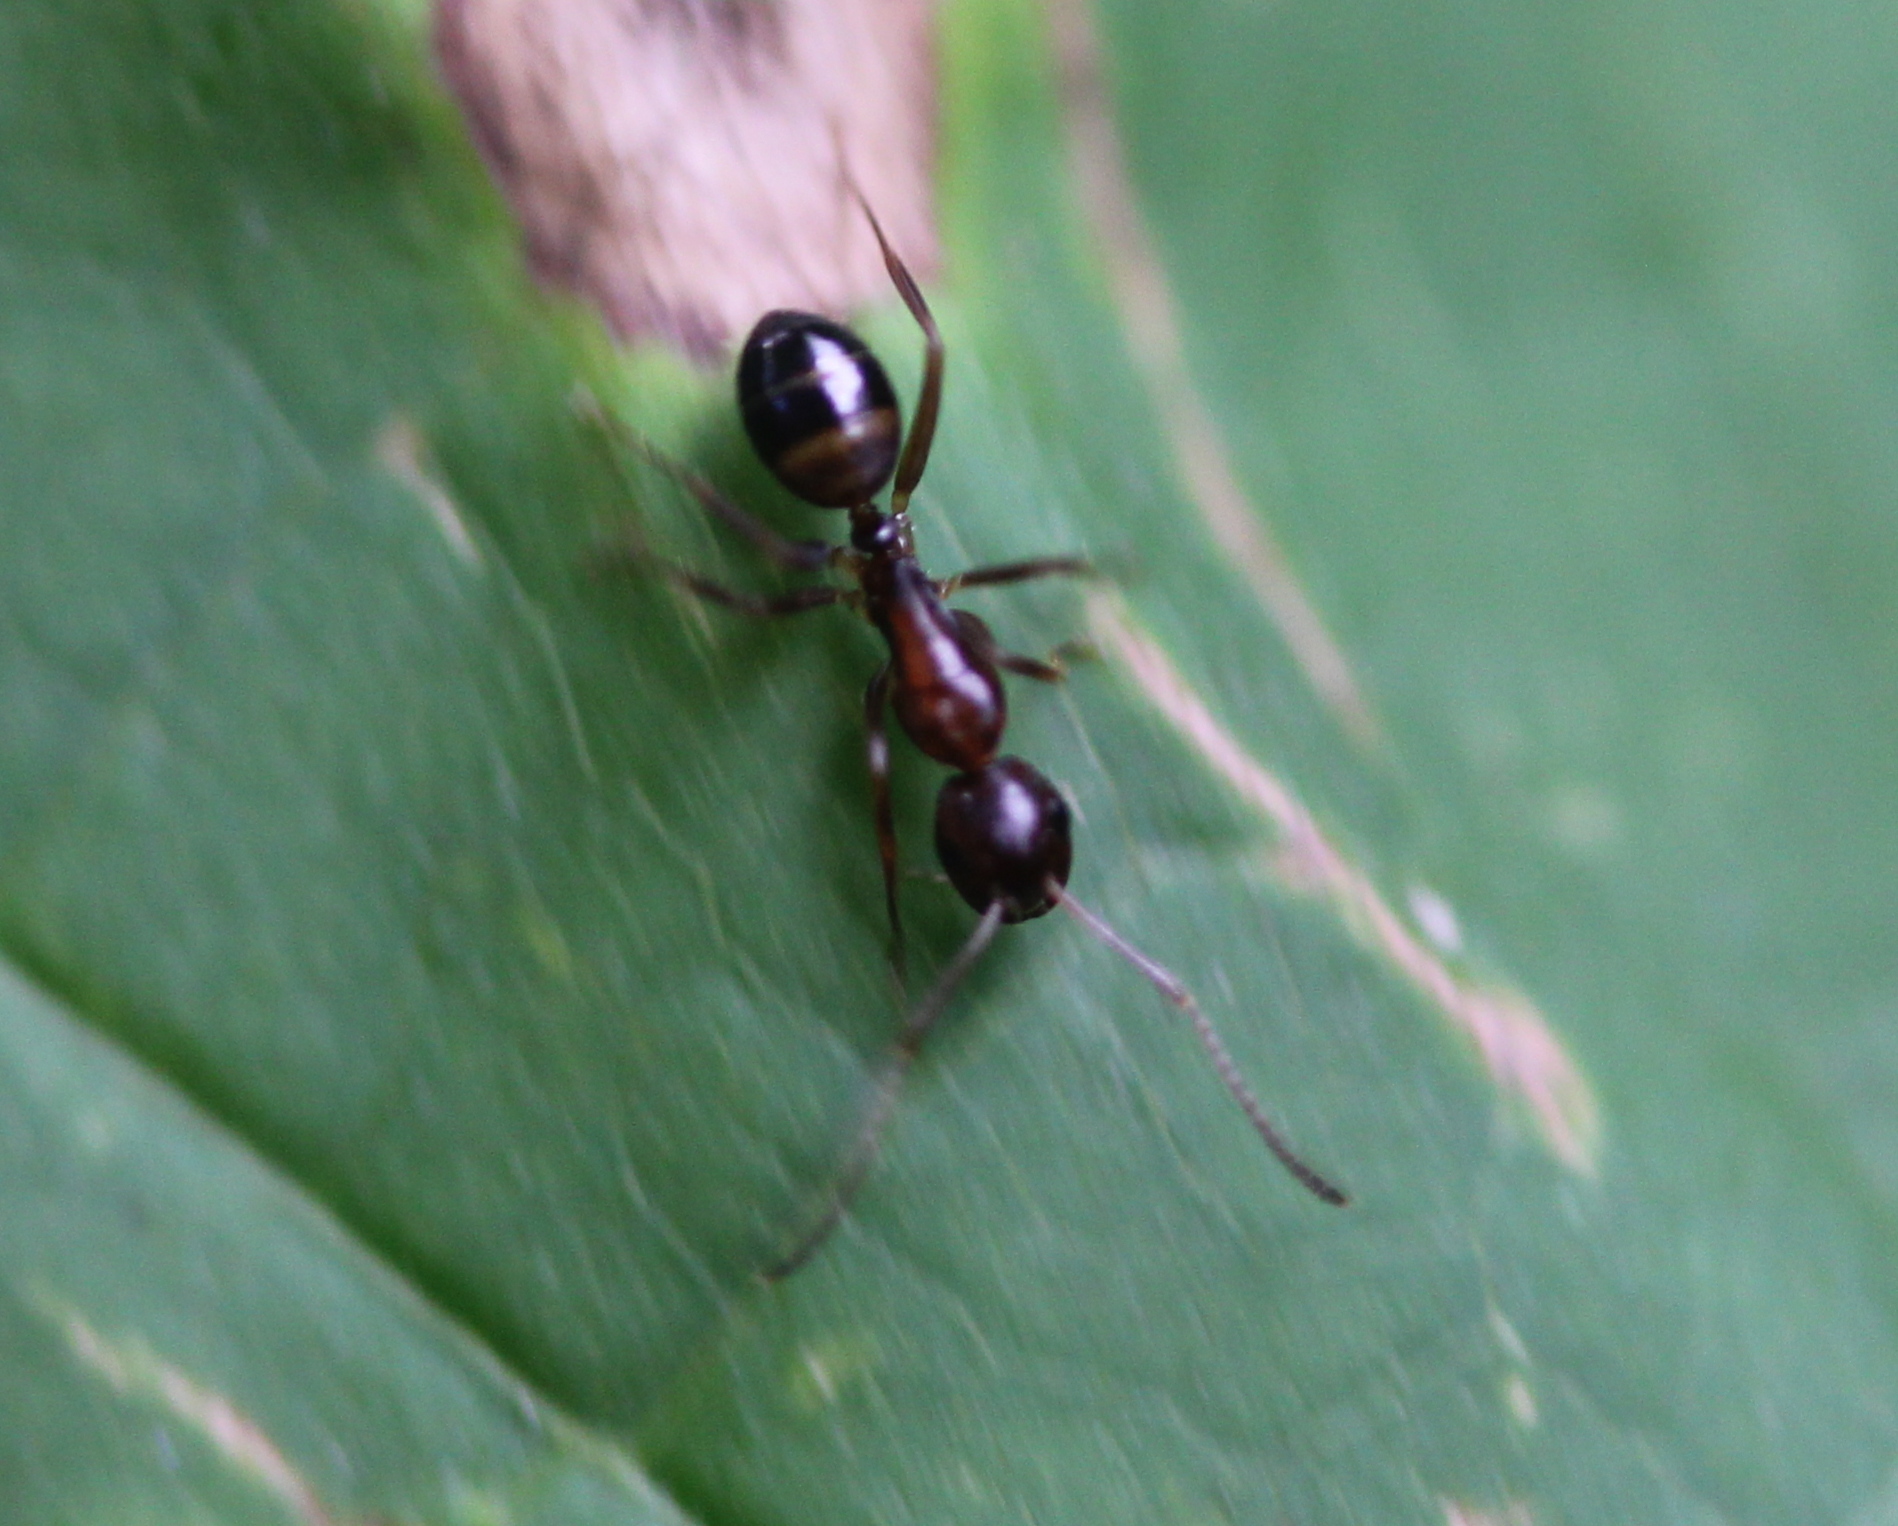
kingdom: Animalia
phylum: Arthropoda
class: Insecta
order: Hymenoptera
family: Formicidae
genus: Camponotus
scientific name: Camponotus subbarbatus
